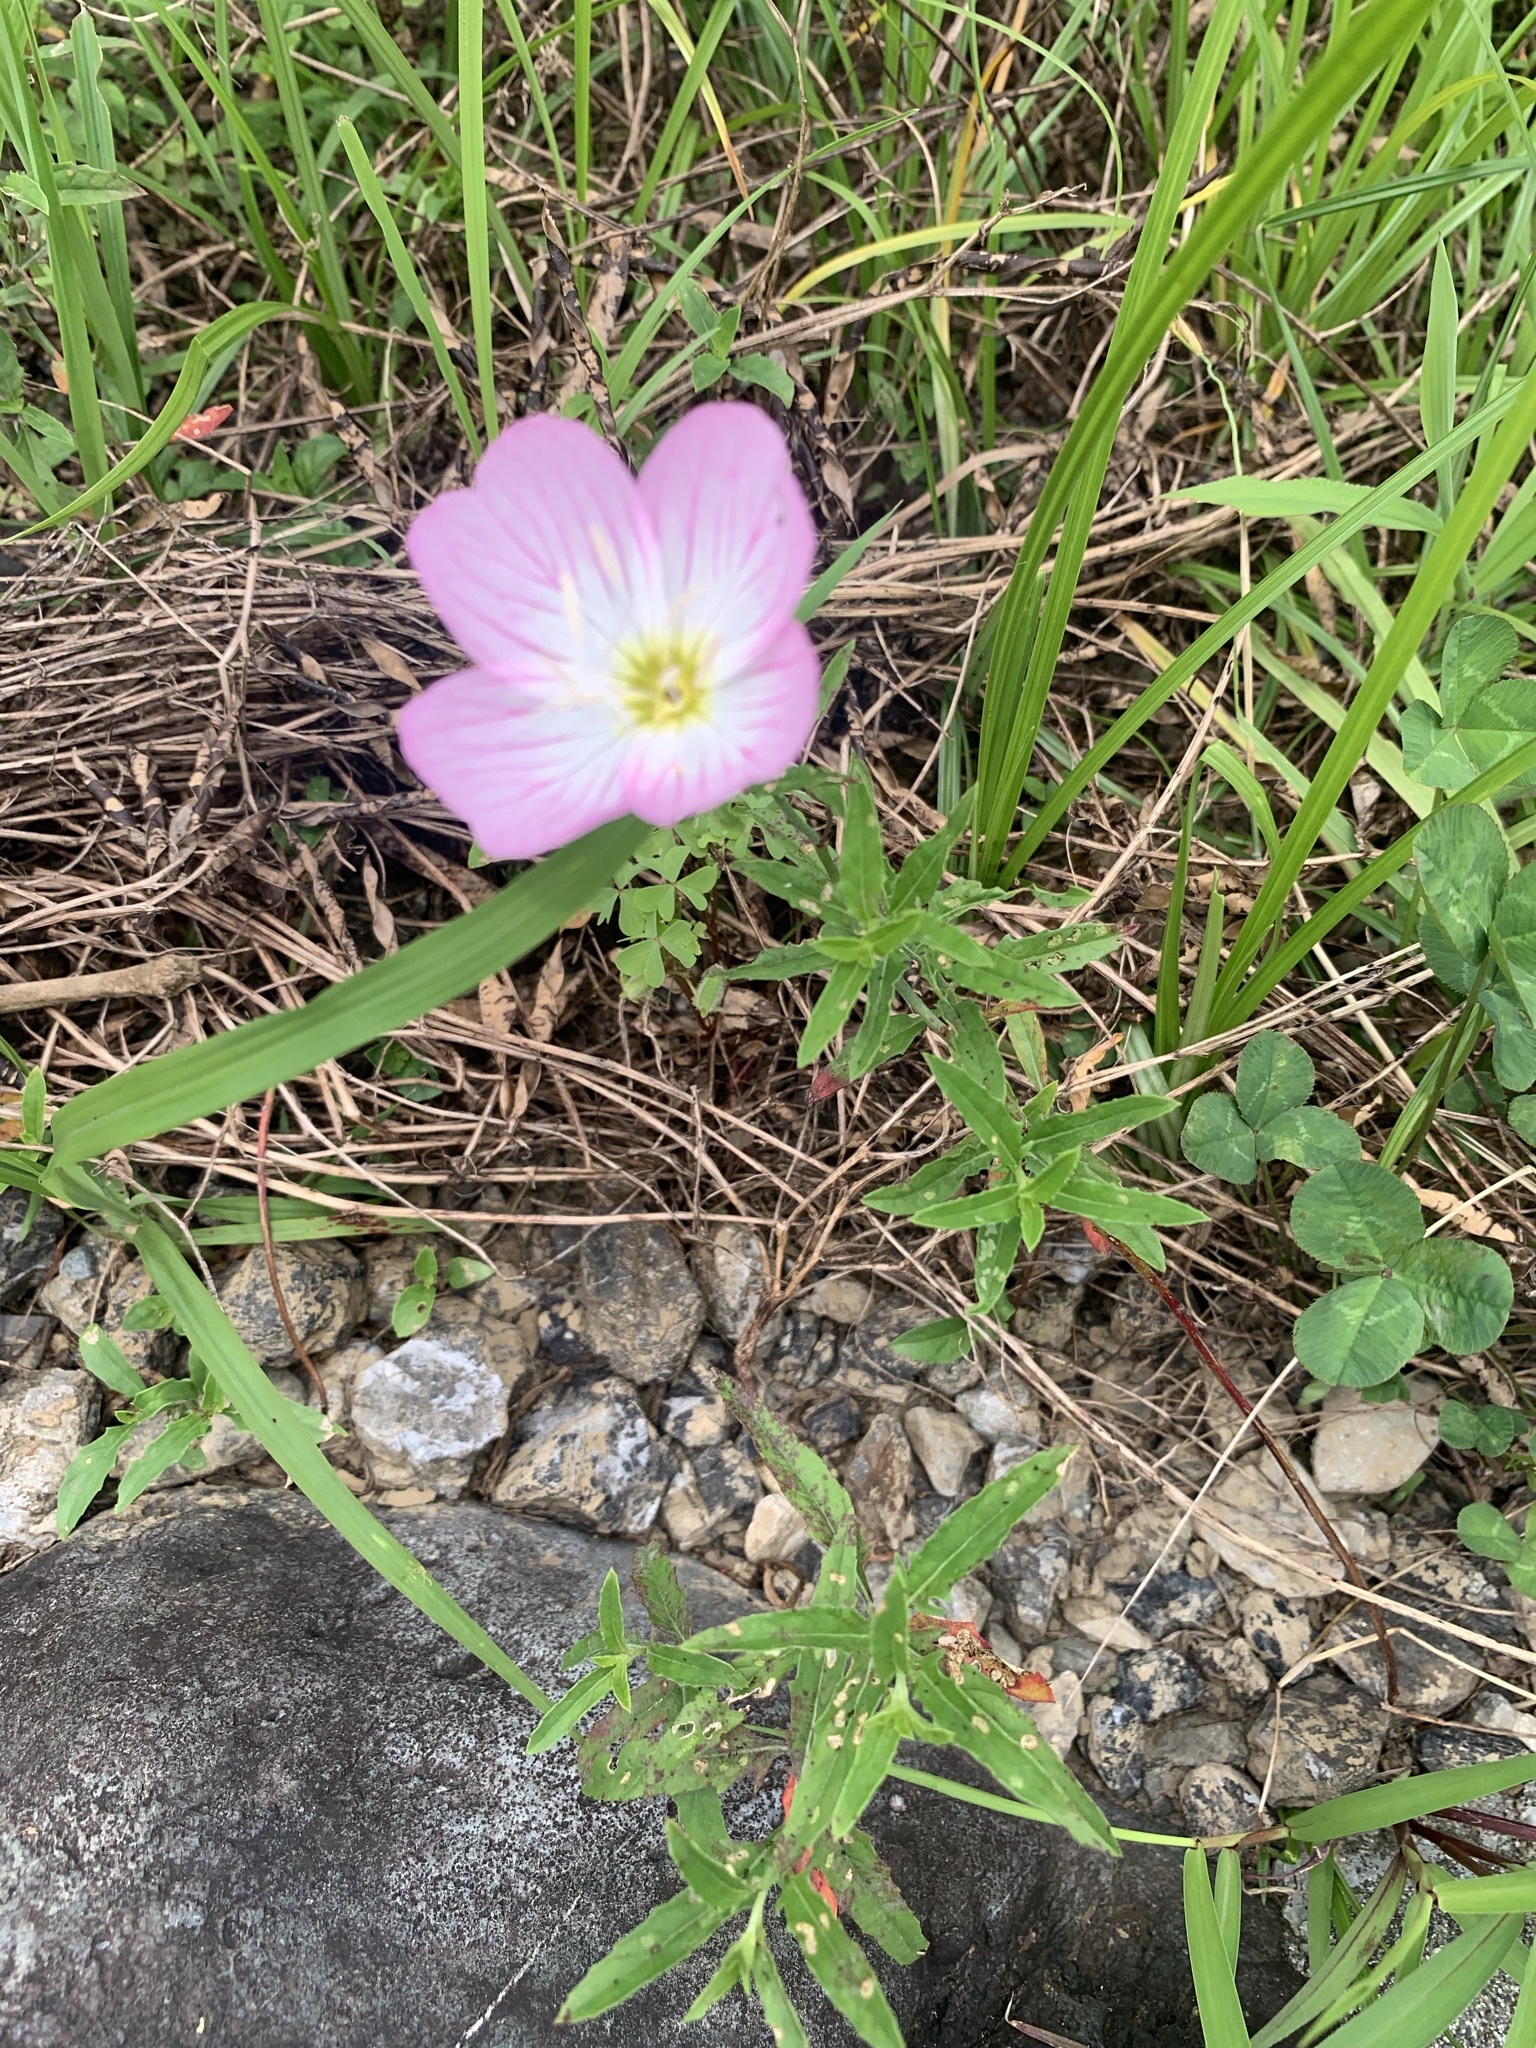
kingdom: Plantae
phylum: Tracheophyta
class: Magnoliopsida
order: Myrtales
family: Onagraceae
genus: Oenothera
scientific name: Oenothera speciosa
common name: White evening-primrose
